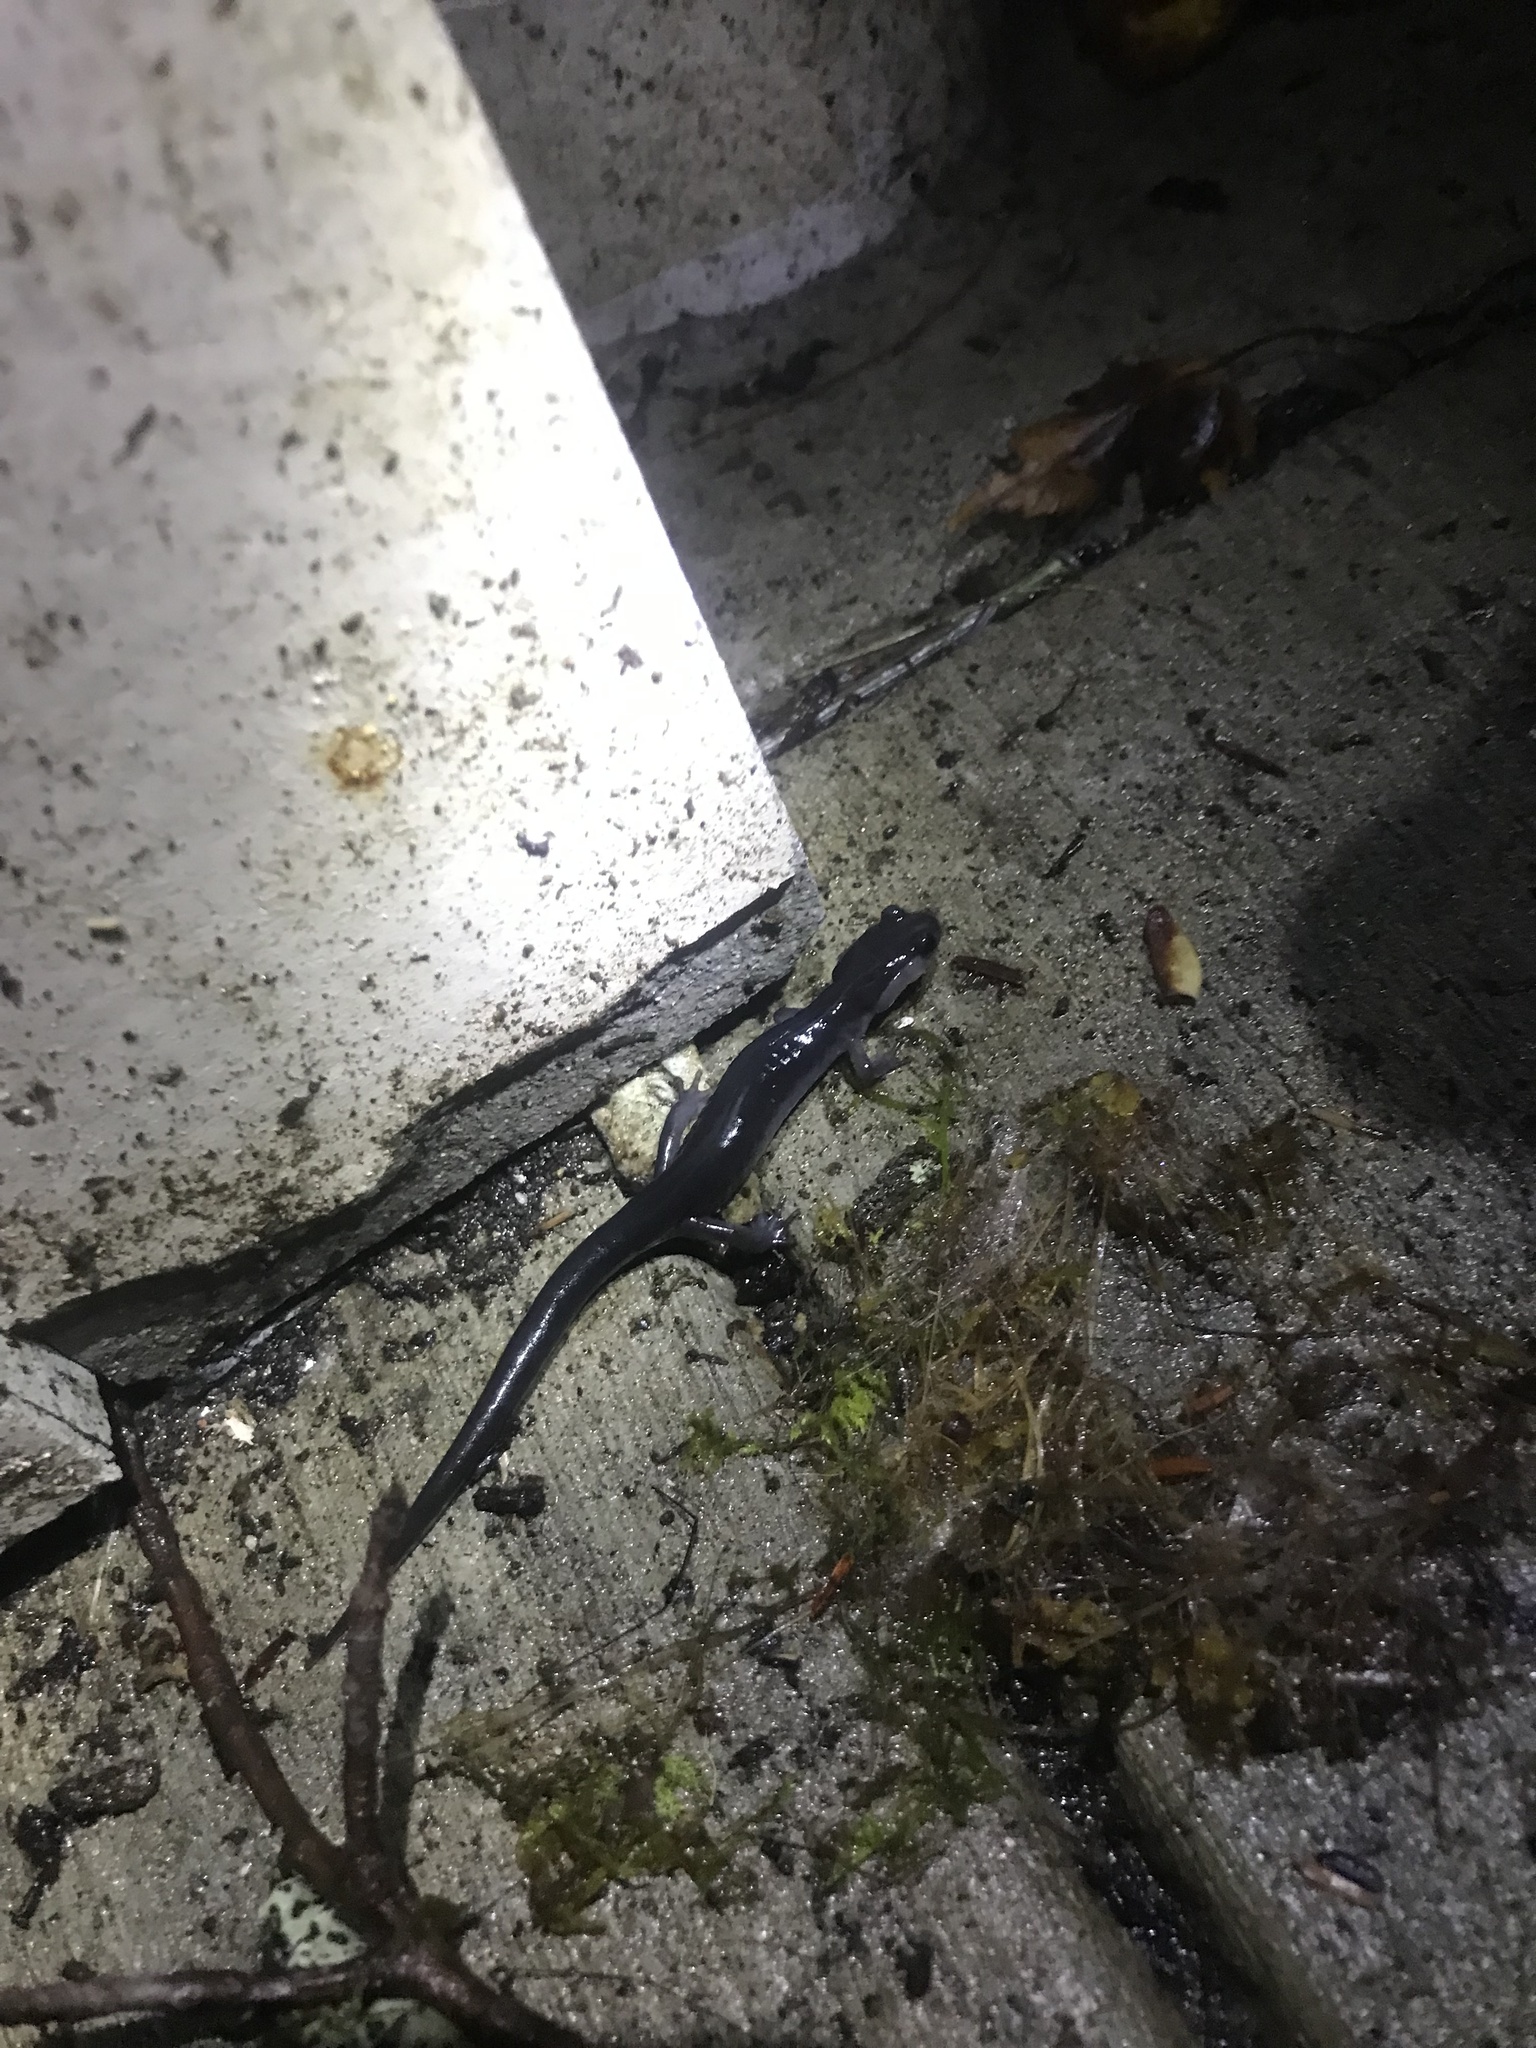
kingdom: Animalia
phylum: Chordata
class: Amphibia
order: Caudata
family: Plethodontidae
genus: Plethodon
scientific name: Plethodon metcalfi
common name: Southern gray-cheeked salamander
